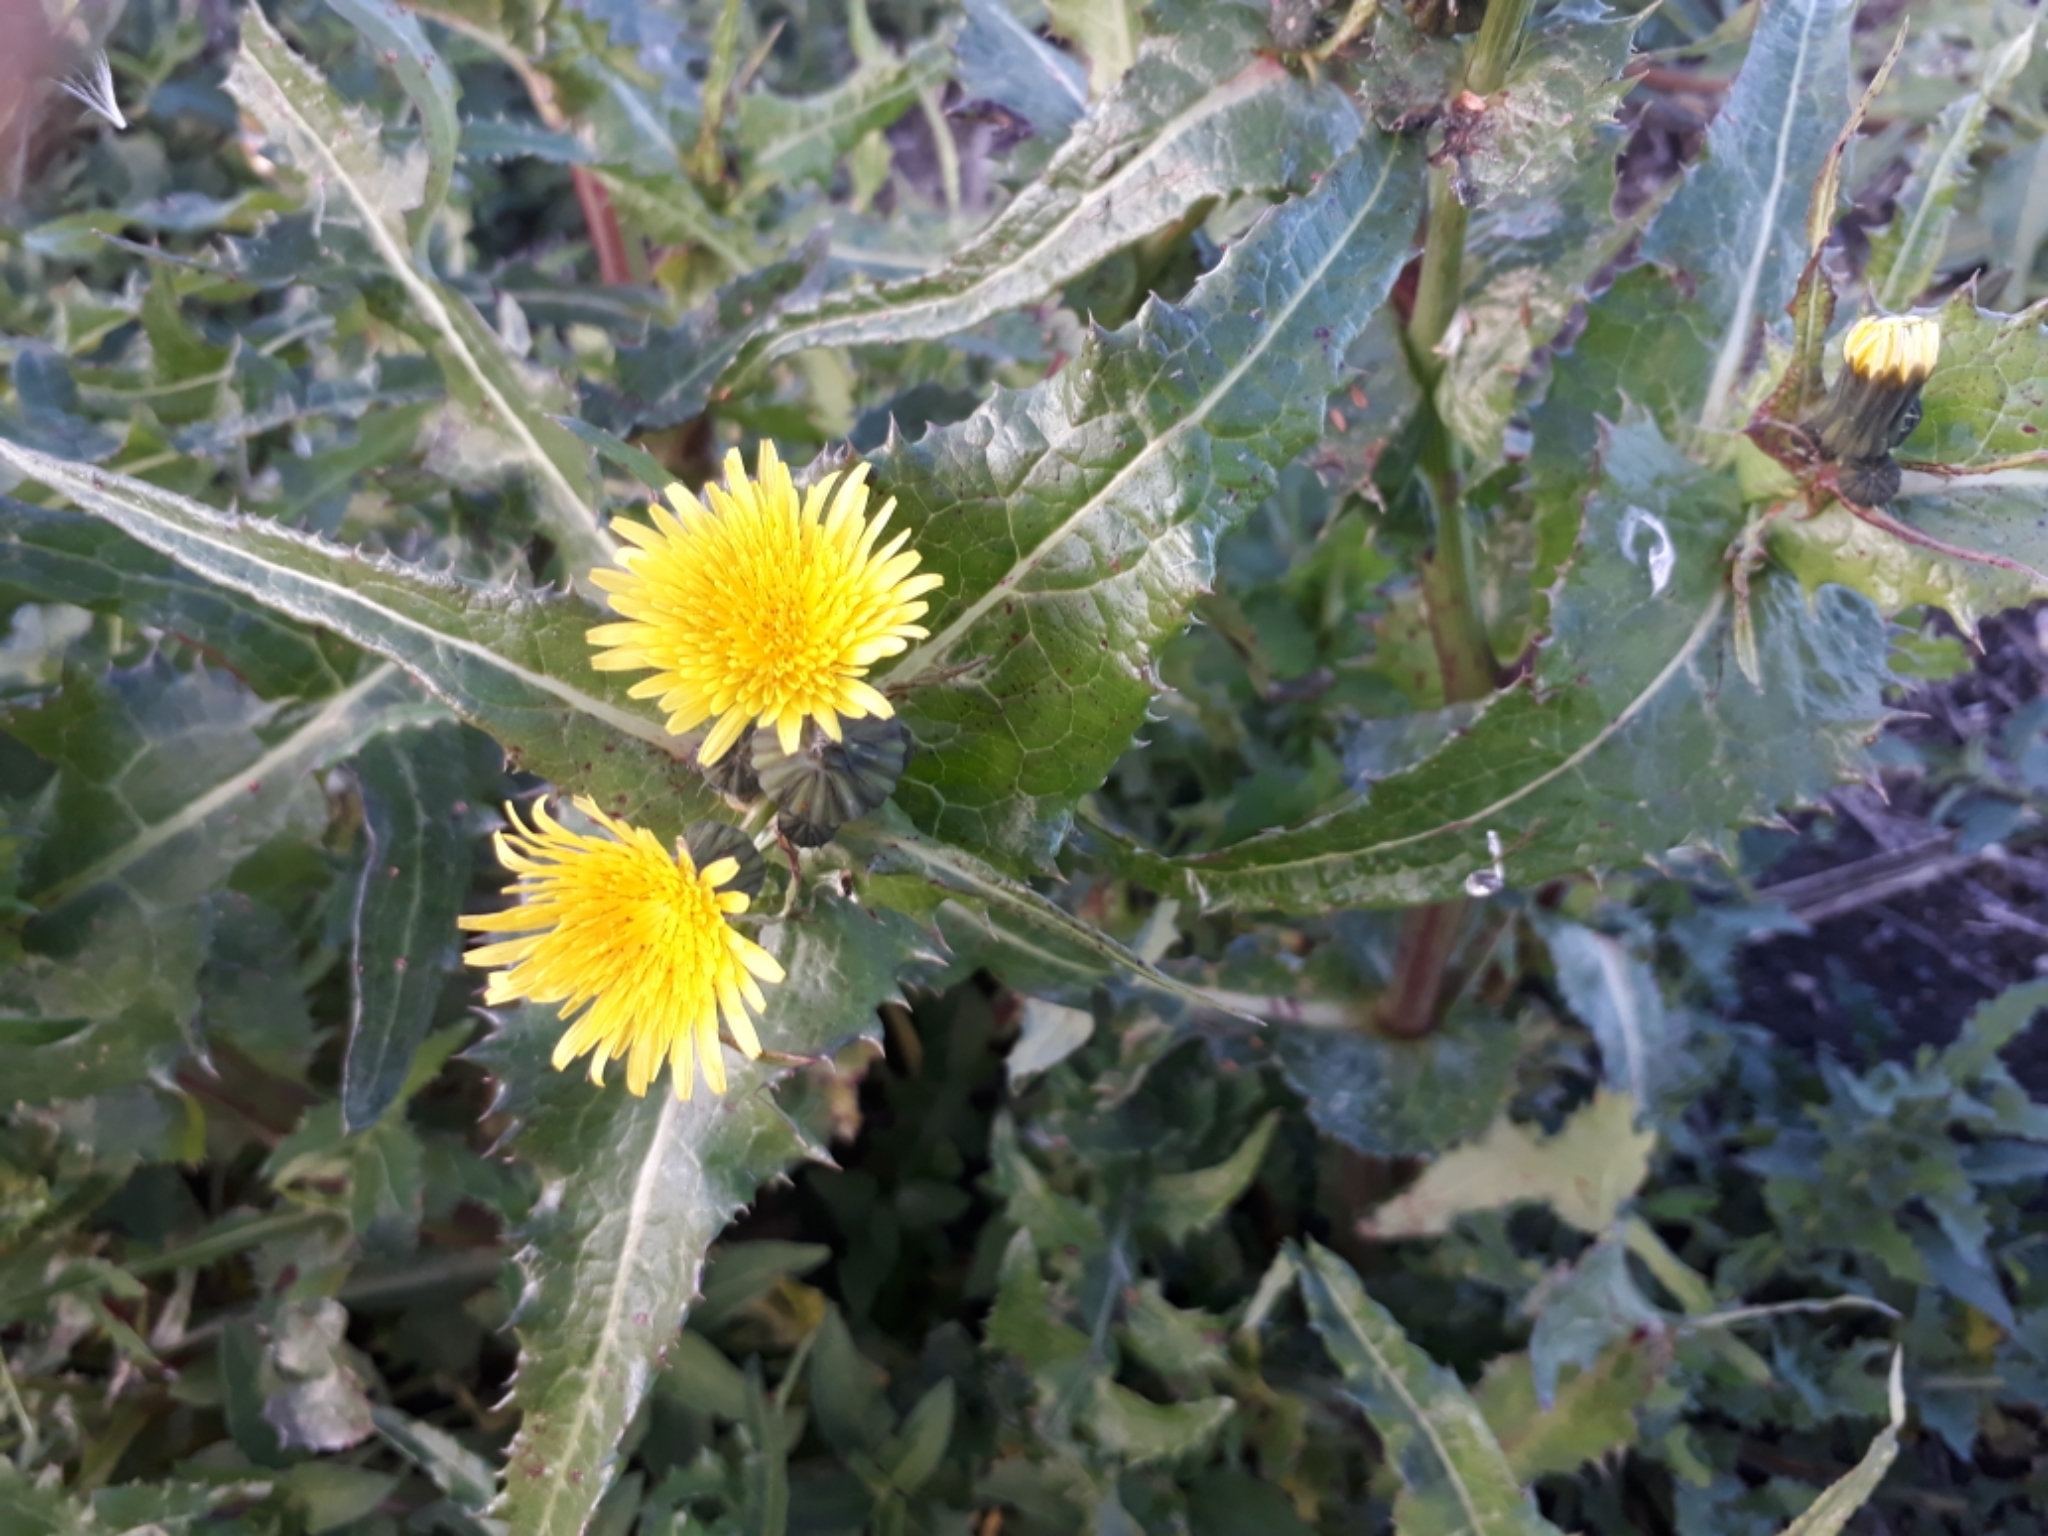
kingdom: Plantae
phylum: Tracheophyta
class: Magnoliopsida
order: Asterales
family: Asteraceae
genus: Sonchus
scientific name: Sonchus asper
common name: Prickly sow-thistle
